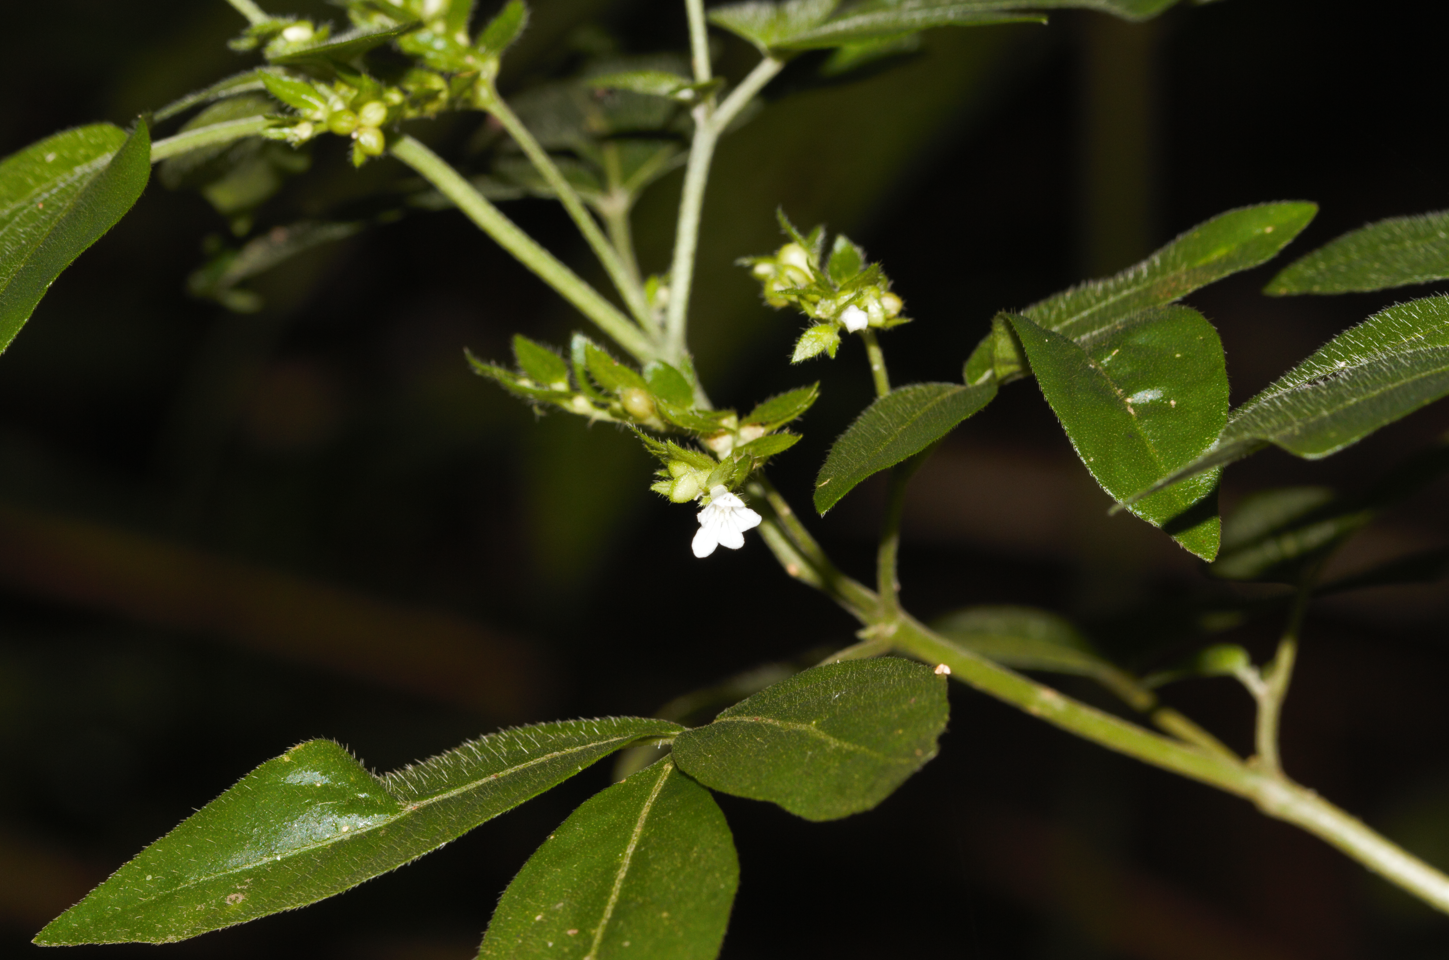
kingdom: Plantae
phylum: Tracheophyta
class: Magnoliopsida
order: Sapindales
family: Rutaceae
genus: Ertela
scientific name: Ertela trifolia
